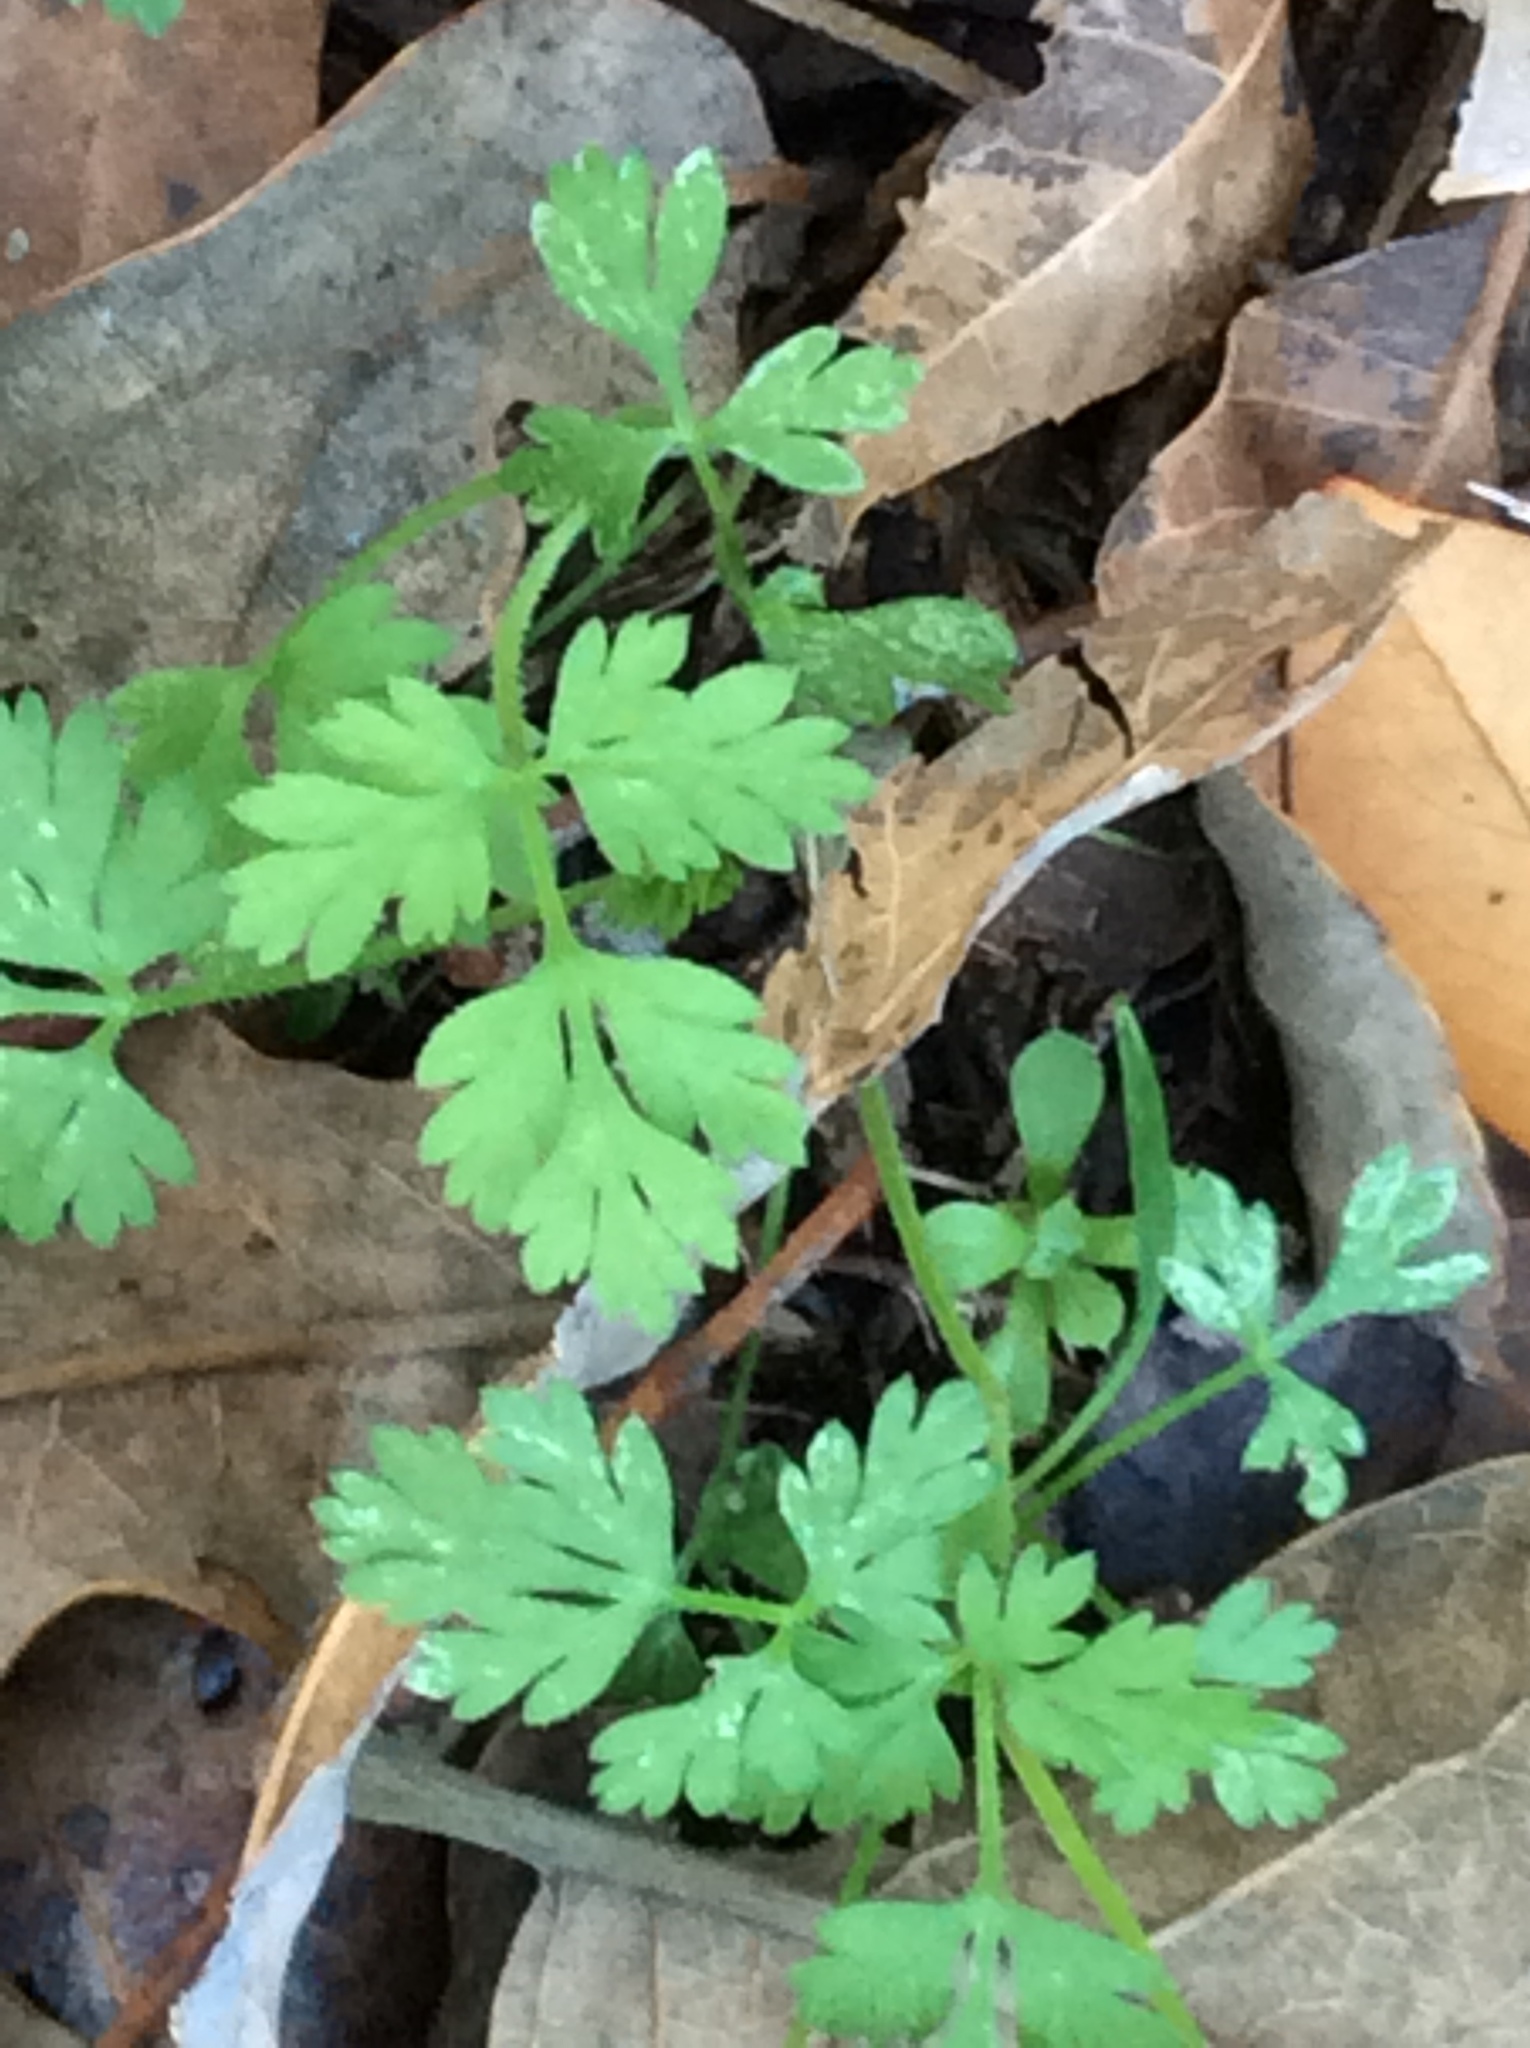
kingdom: Plantae
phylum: Tracheophyta
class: Magnoliopsida
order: Apiales
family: Apiaceae
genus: Torilis
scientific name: Torilis arvensis
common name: Spreading hedge-parsley
